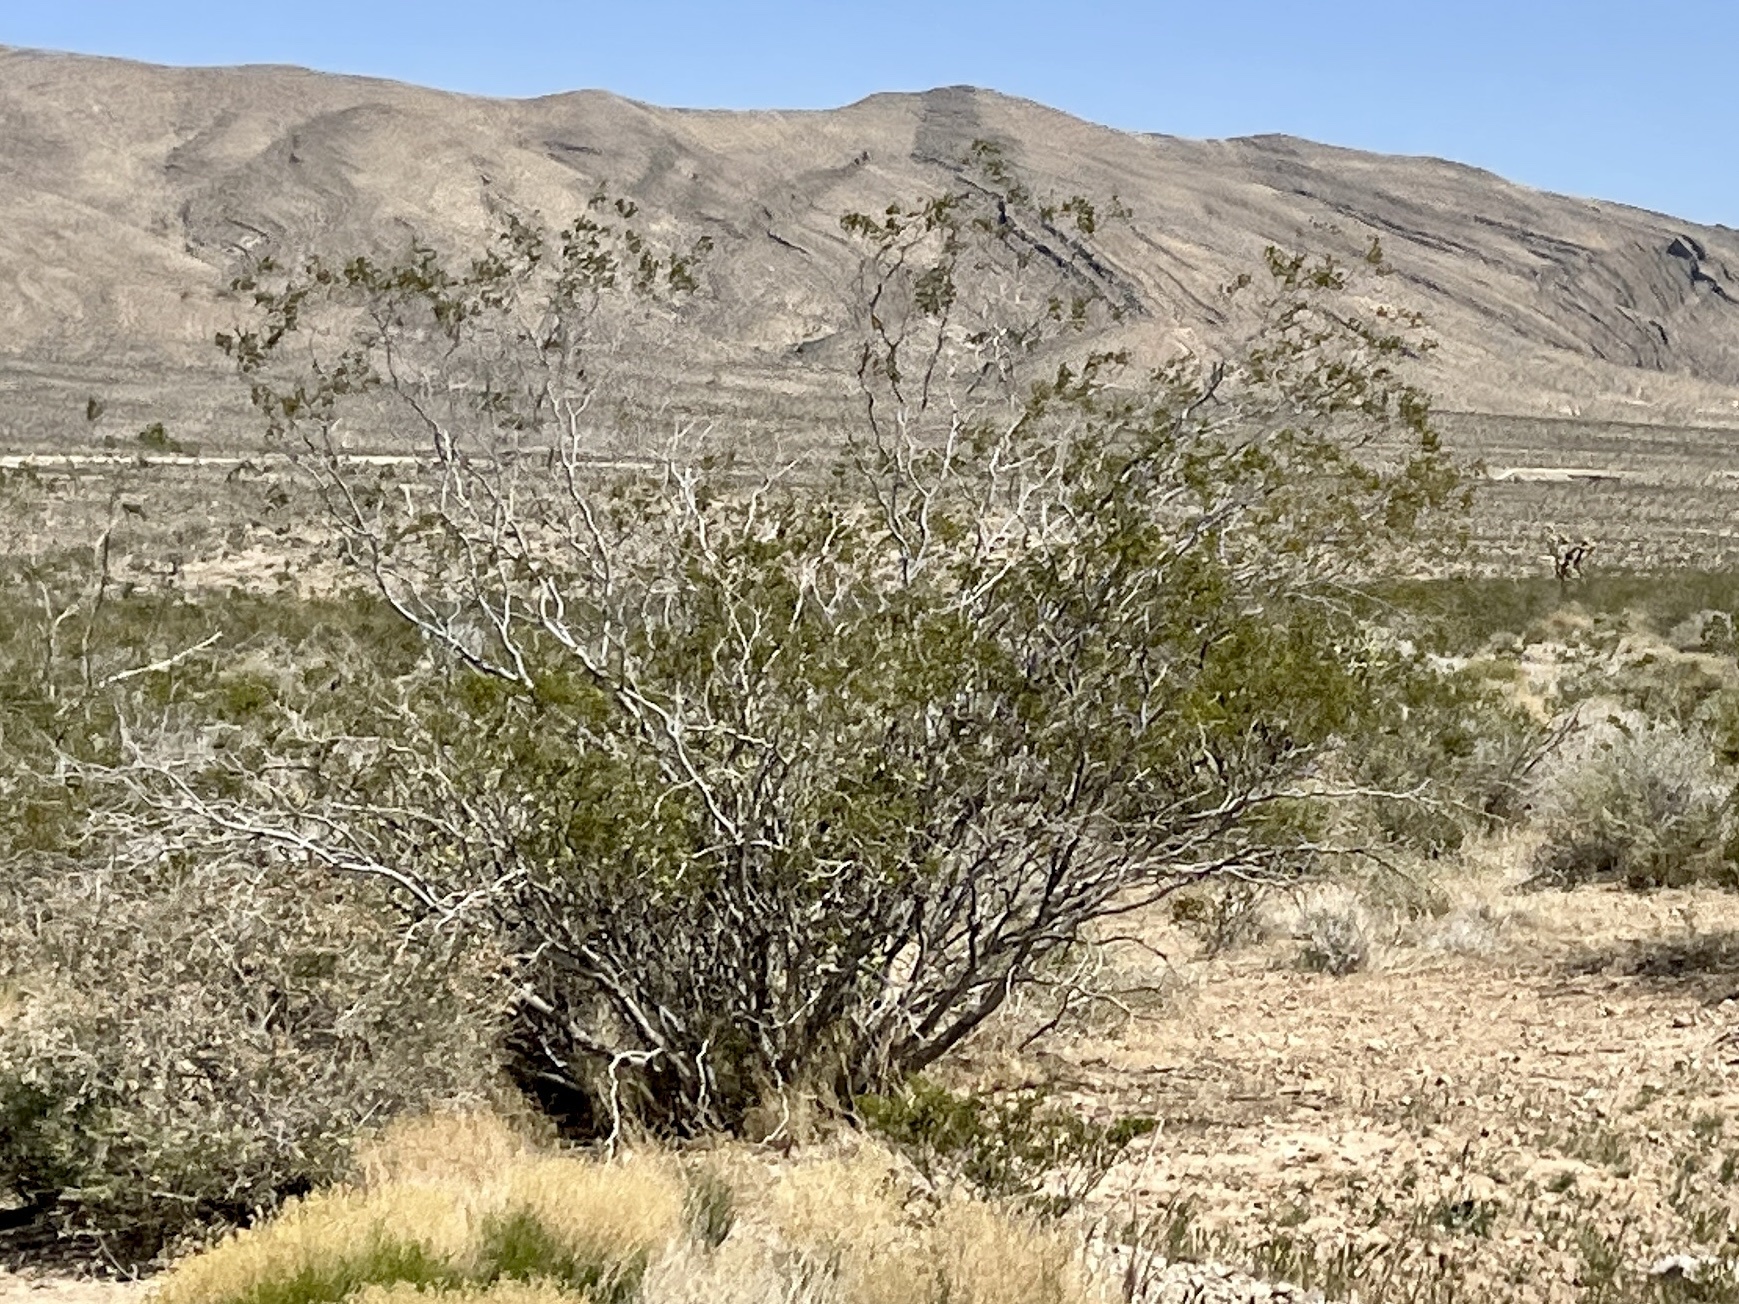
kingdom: Plantae
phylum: Tracheophyta
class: Magnoliopsida
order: Zygophyllales
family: Zygophyllaceae
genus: Larrea
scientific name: Larrea tridentata
